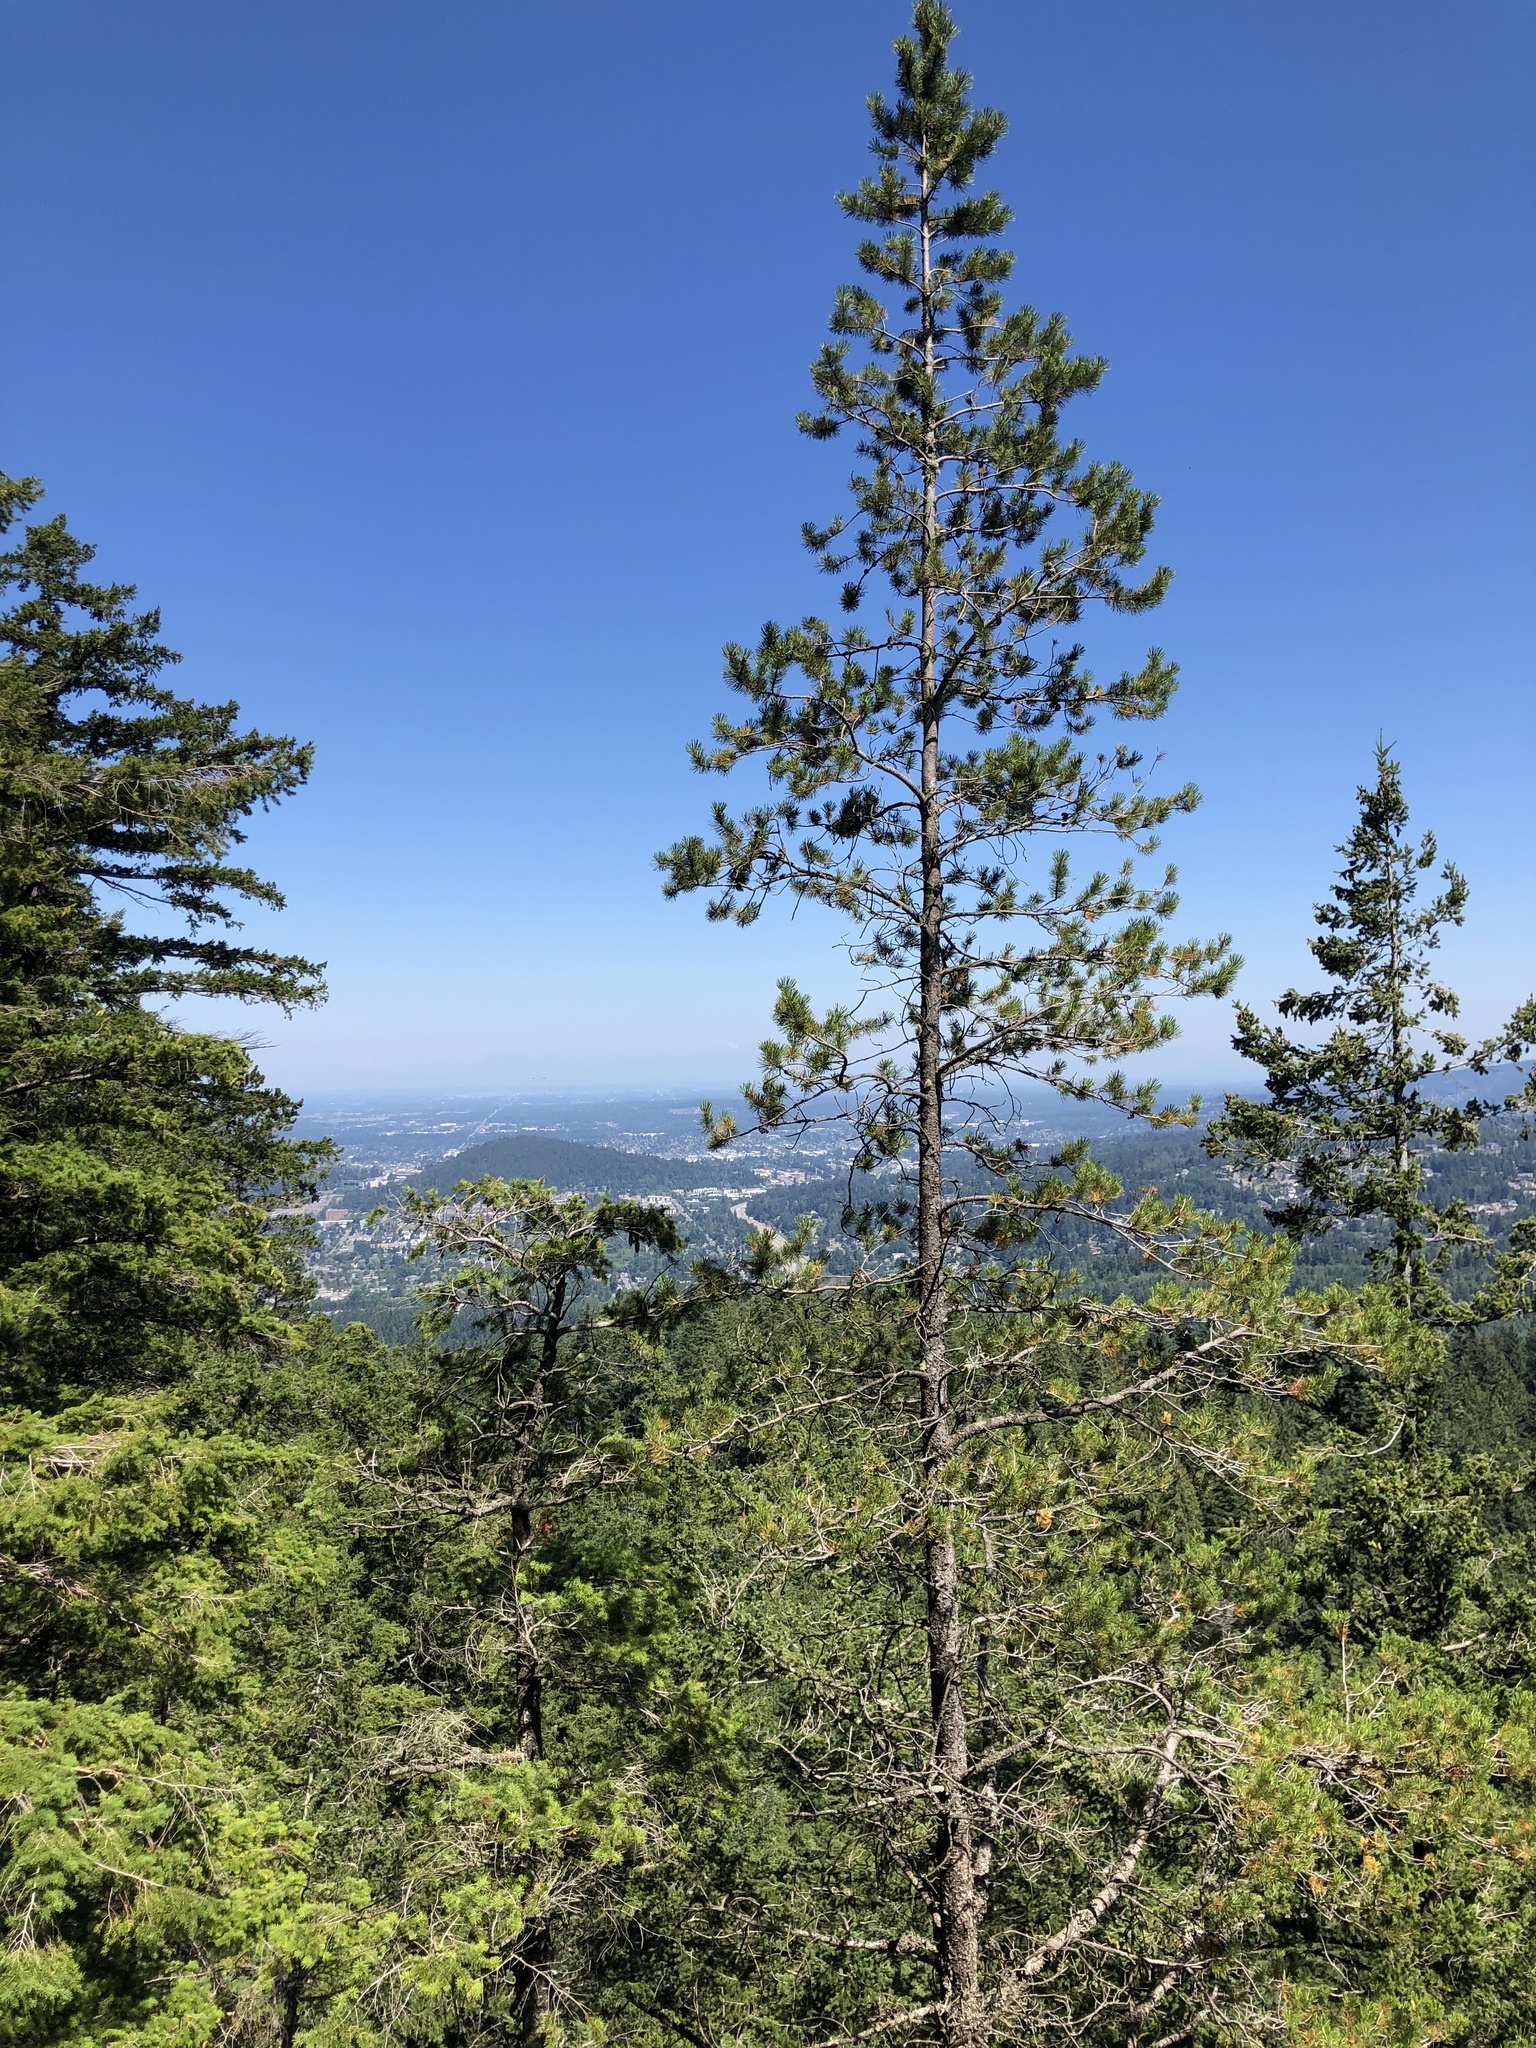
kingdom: Plantae
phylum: Tracheophyta
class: Pinopsida
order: Pinales
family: Pinaceae
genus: Pinus
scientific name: Pinus contorta
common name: Lodgepole pine
